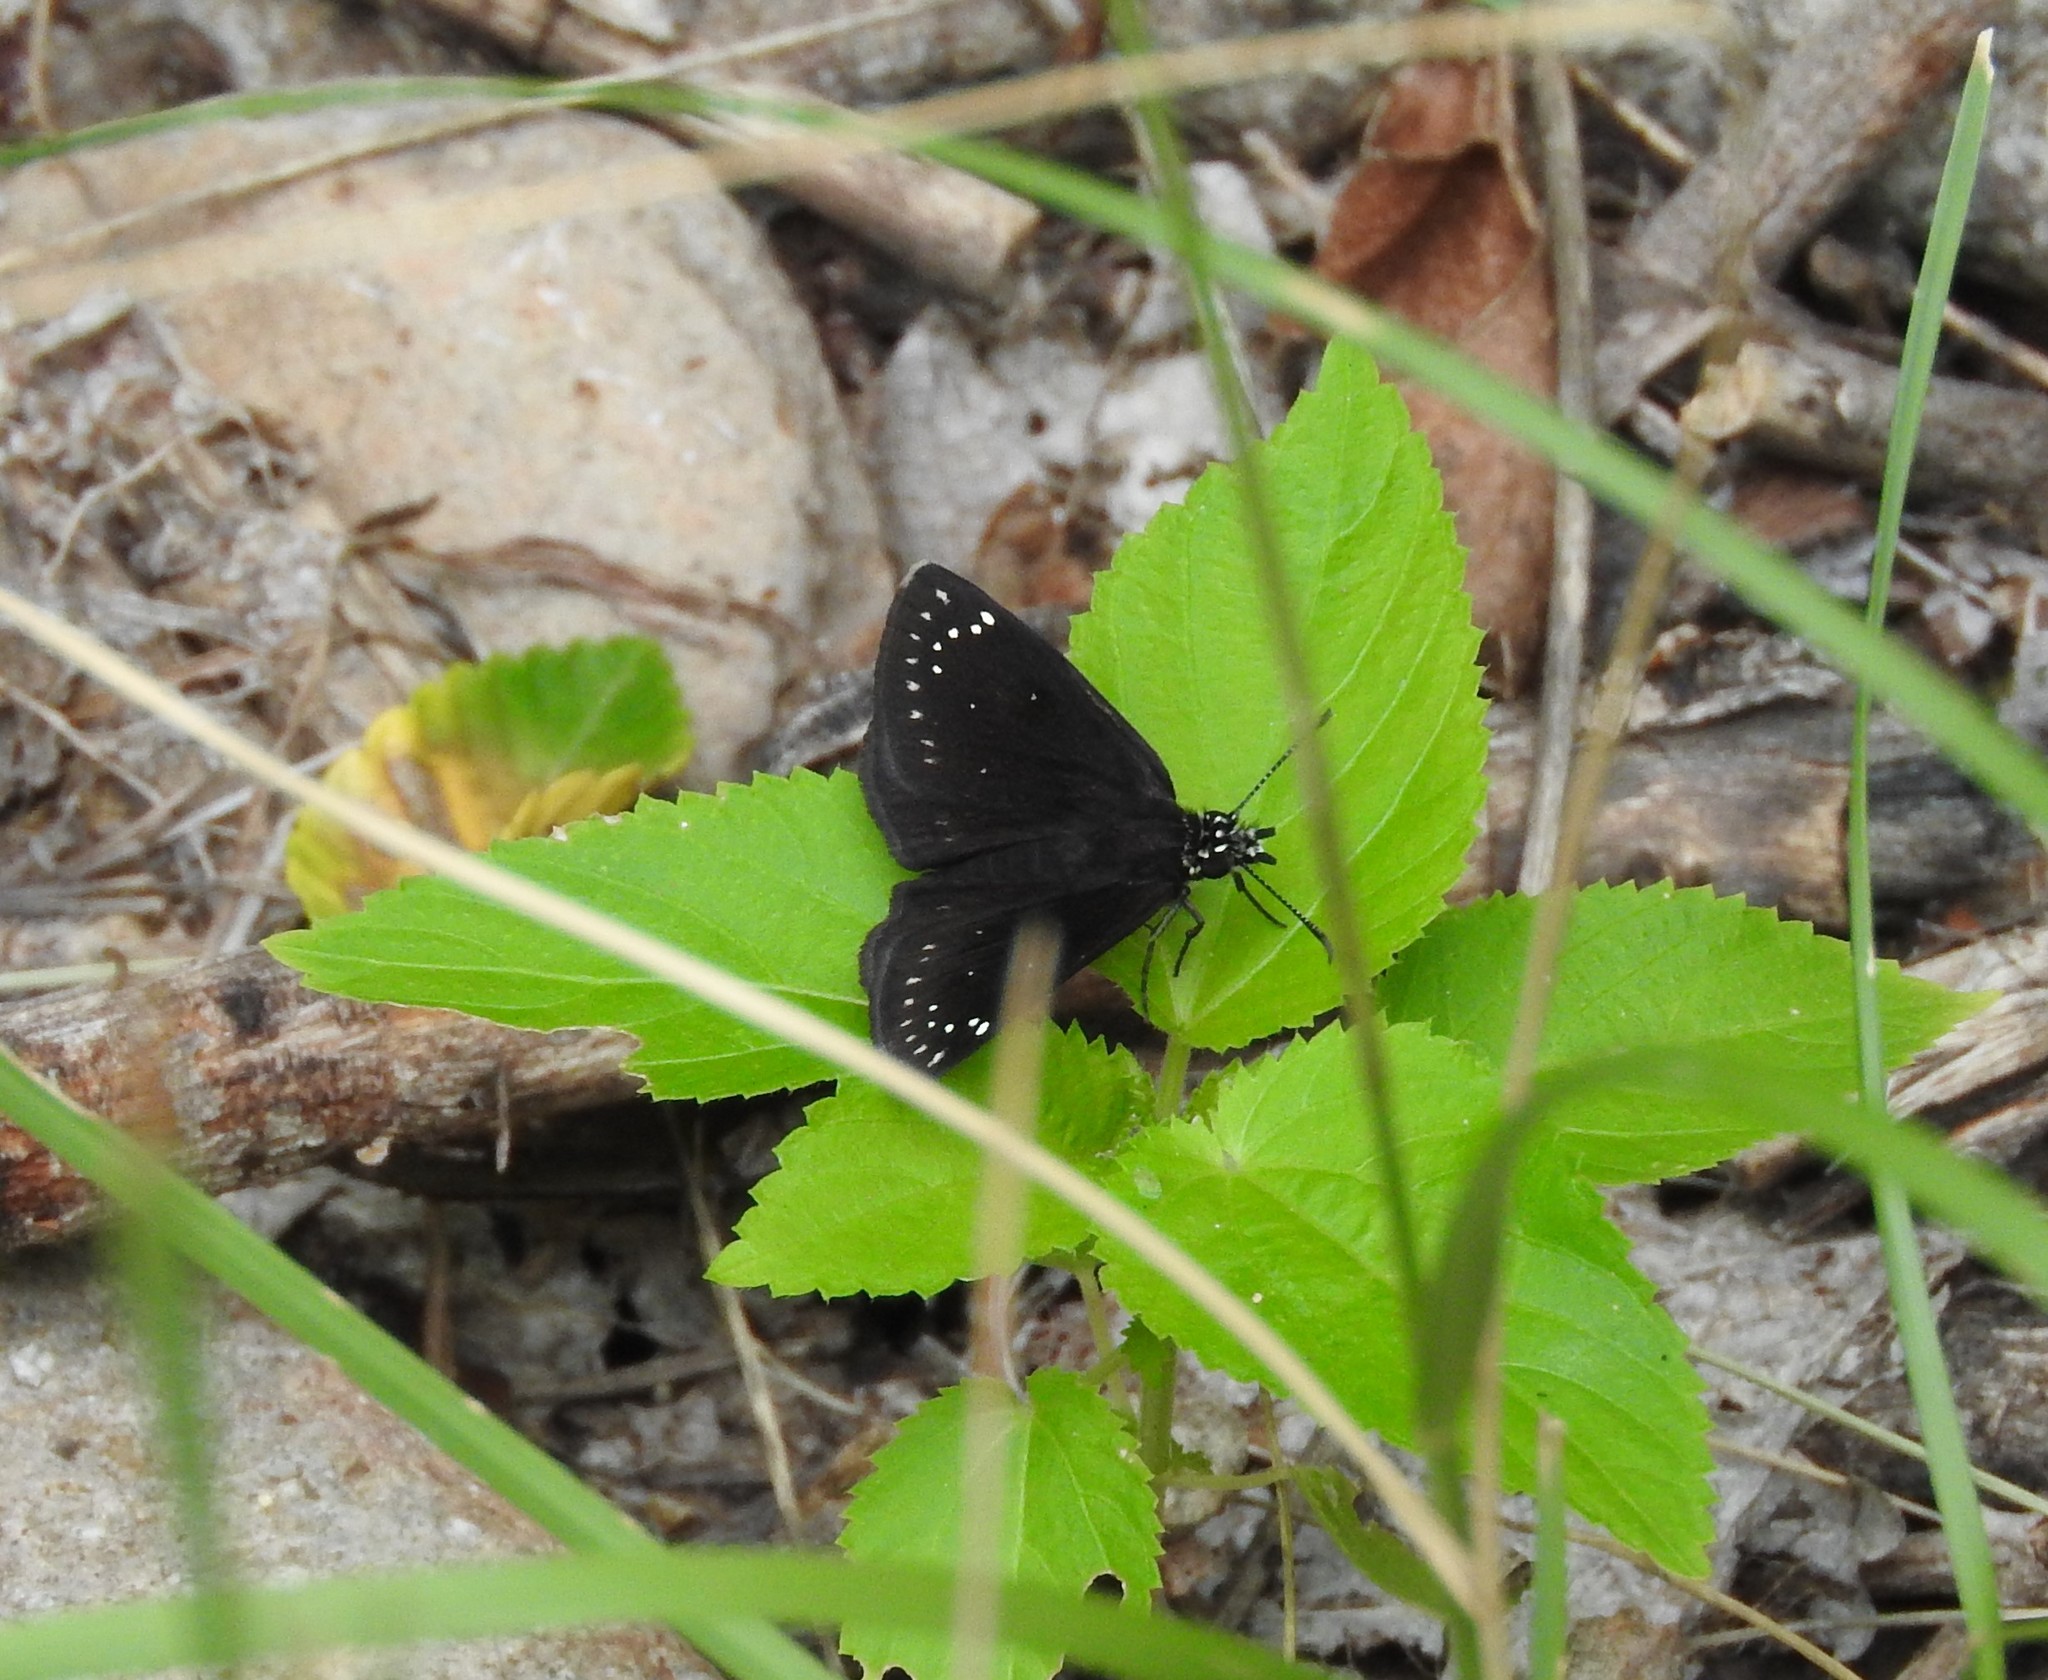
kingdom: Animalia
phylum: Arthropoda
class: Insecta
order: Lepidoptera
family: Hesperiidae
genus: Pholisora
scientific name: Pholisora catullus
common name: Common sootywing
